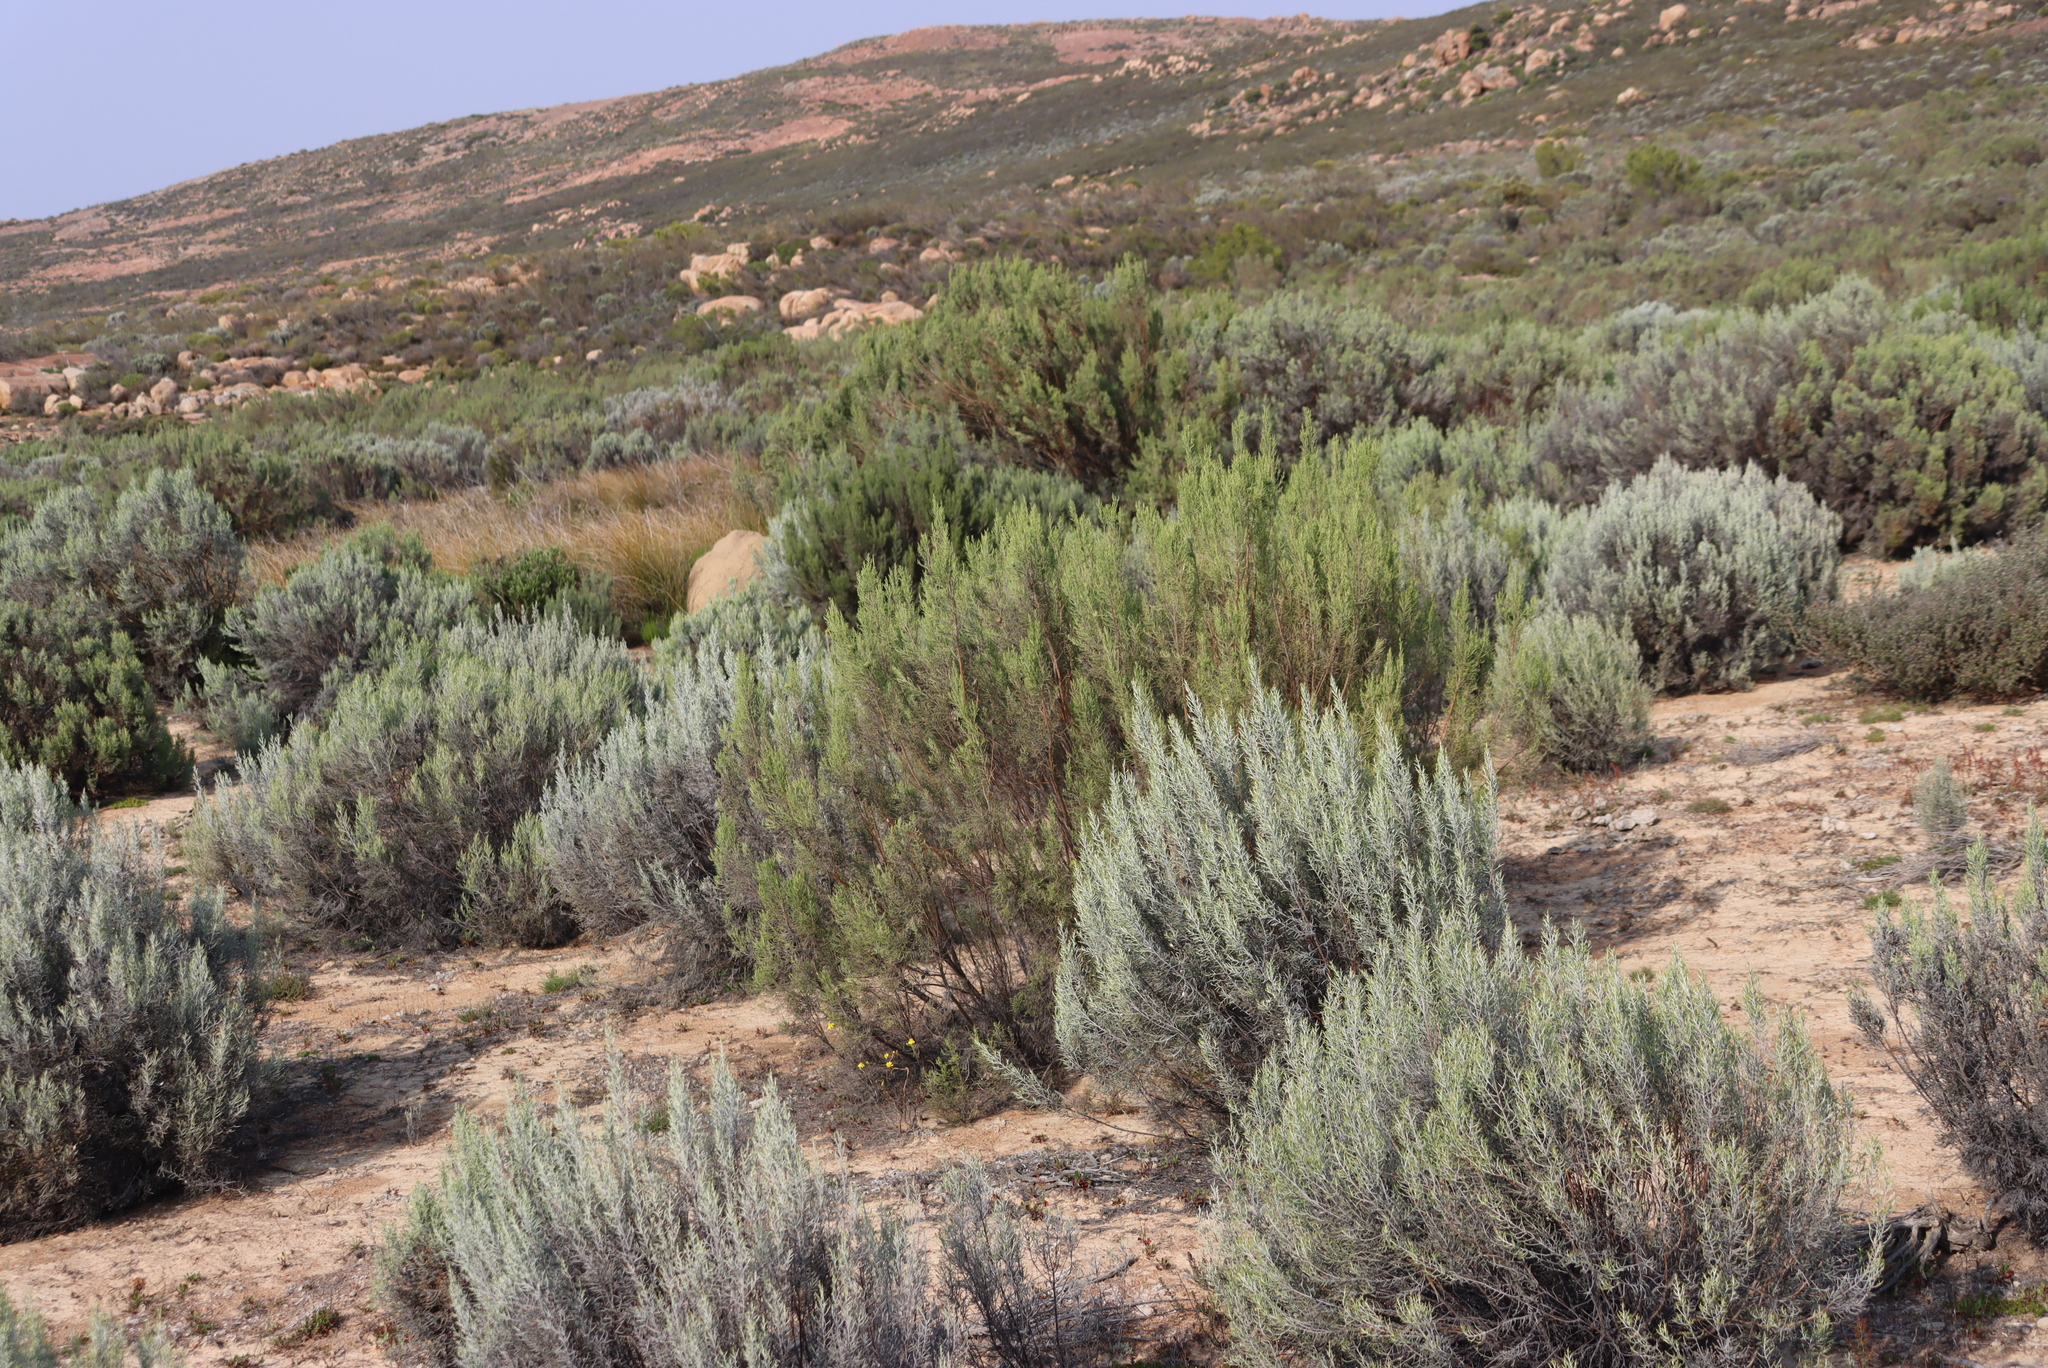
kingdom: Plantae
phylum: Tracheophyta
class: Magnoliopsida
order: Asterales
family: Asteraceae
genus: Dicerothamnus
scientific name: Dicerothamnus rhinocerotis
